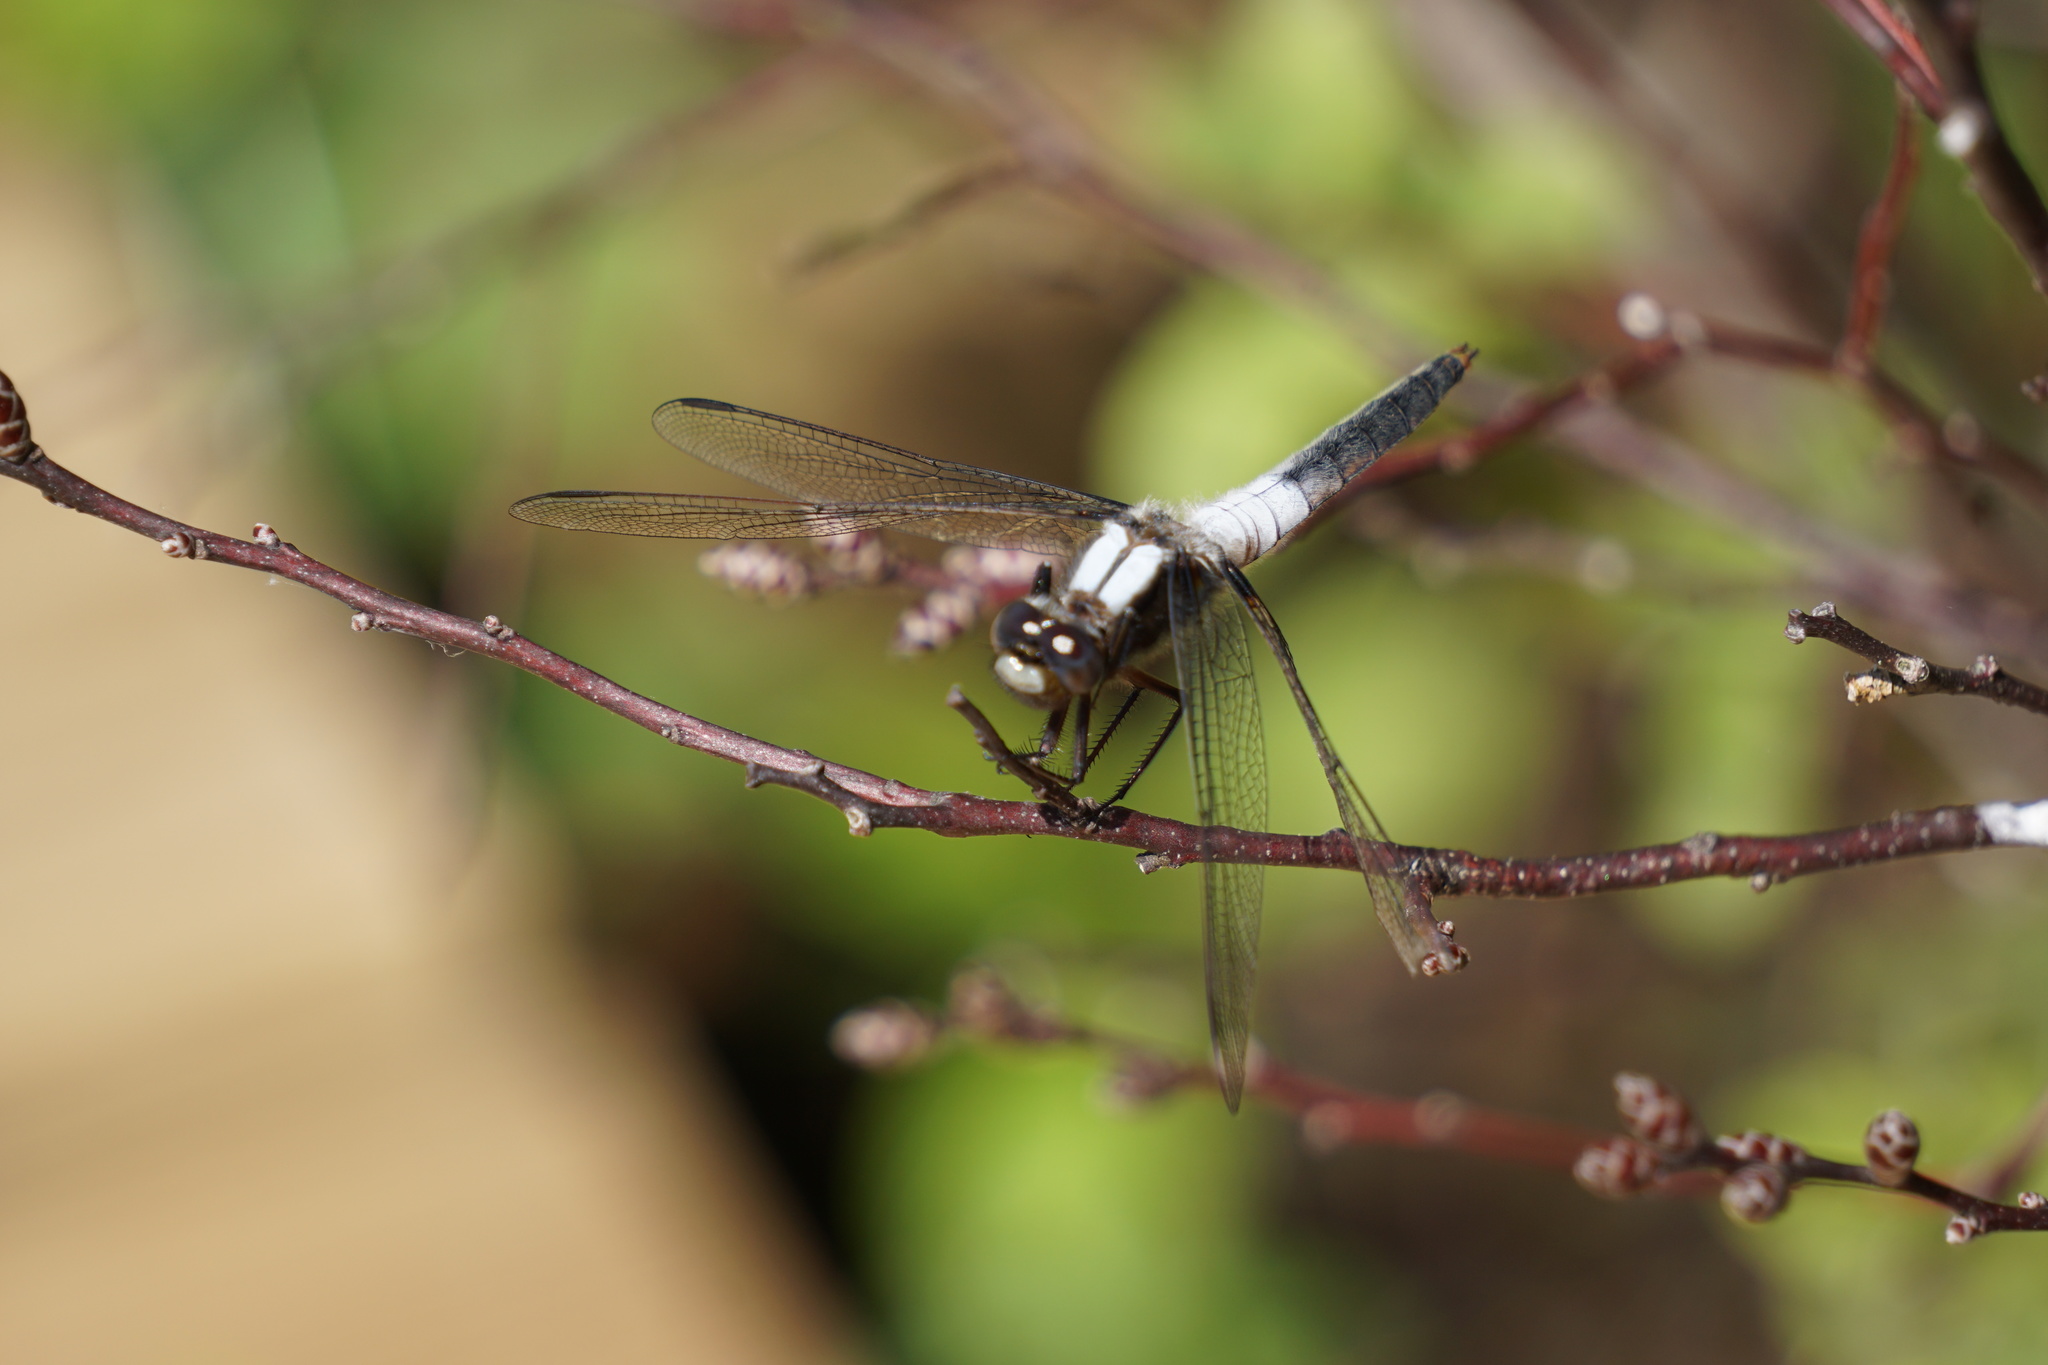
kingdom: Animalia
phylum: Arthropoda
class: Insecta
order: Odonata
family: Libellulidae
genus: Ladona
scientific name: Ladona julia
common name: Chalk-fronted corporal
